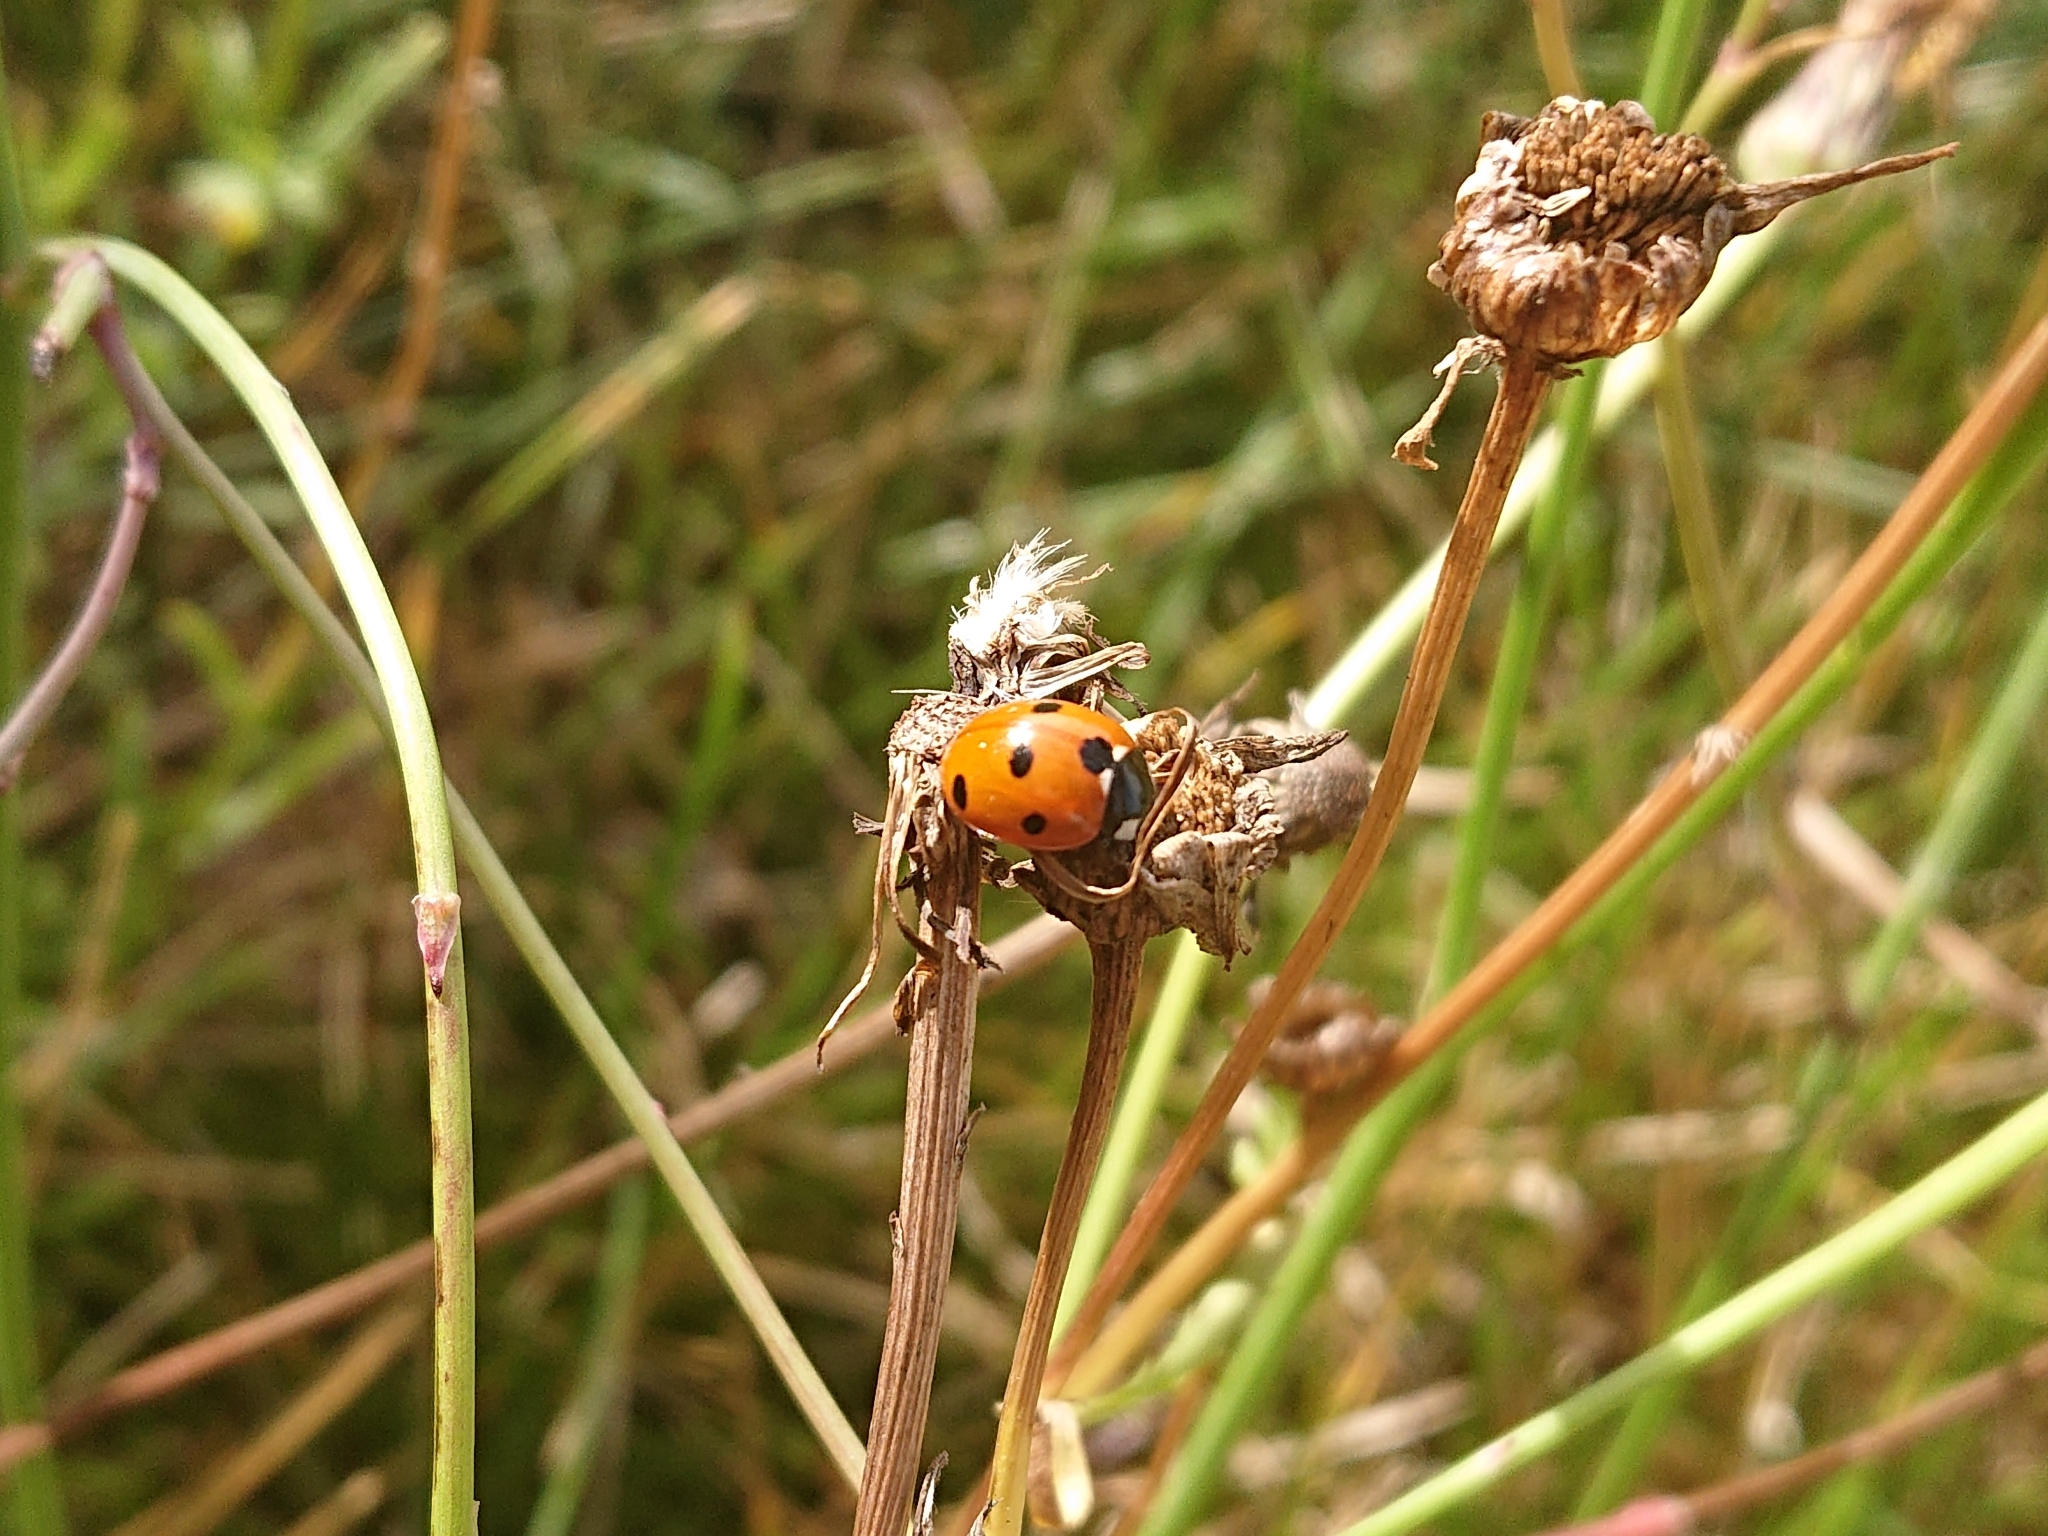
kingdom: Animalia
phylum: Arthropoda
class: Insecta
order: Coleoptera
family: Coccinellidae
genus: Coccinella
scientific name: Coccinella septempunctata
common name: Sevenspotted lady beetle
